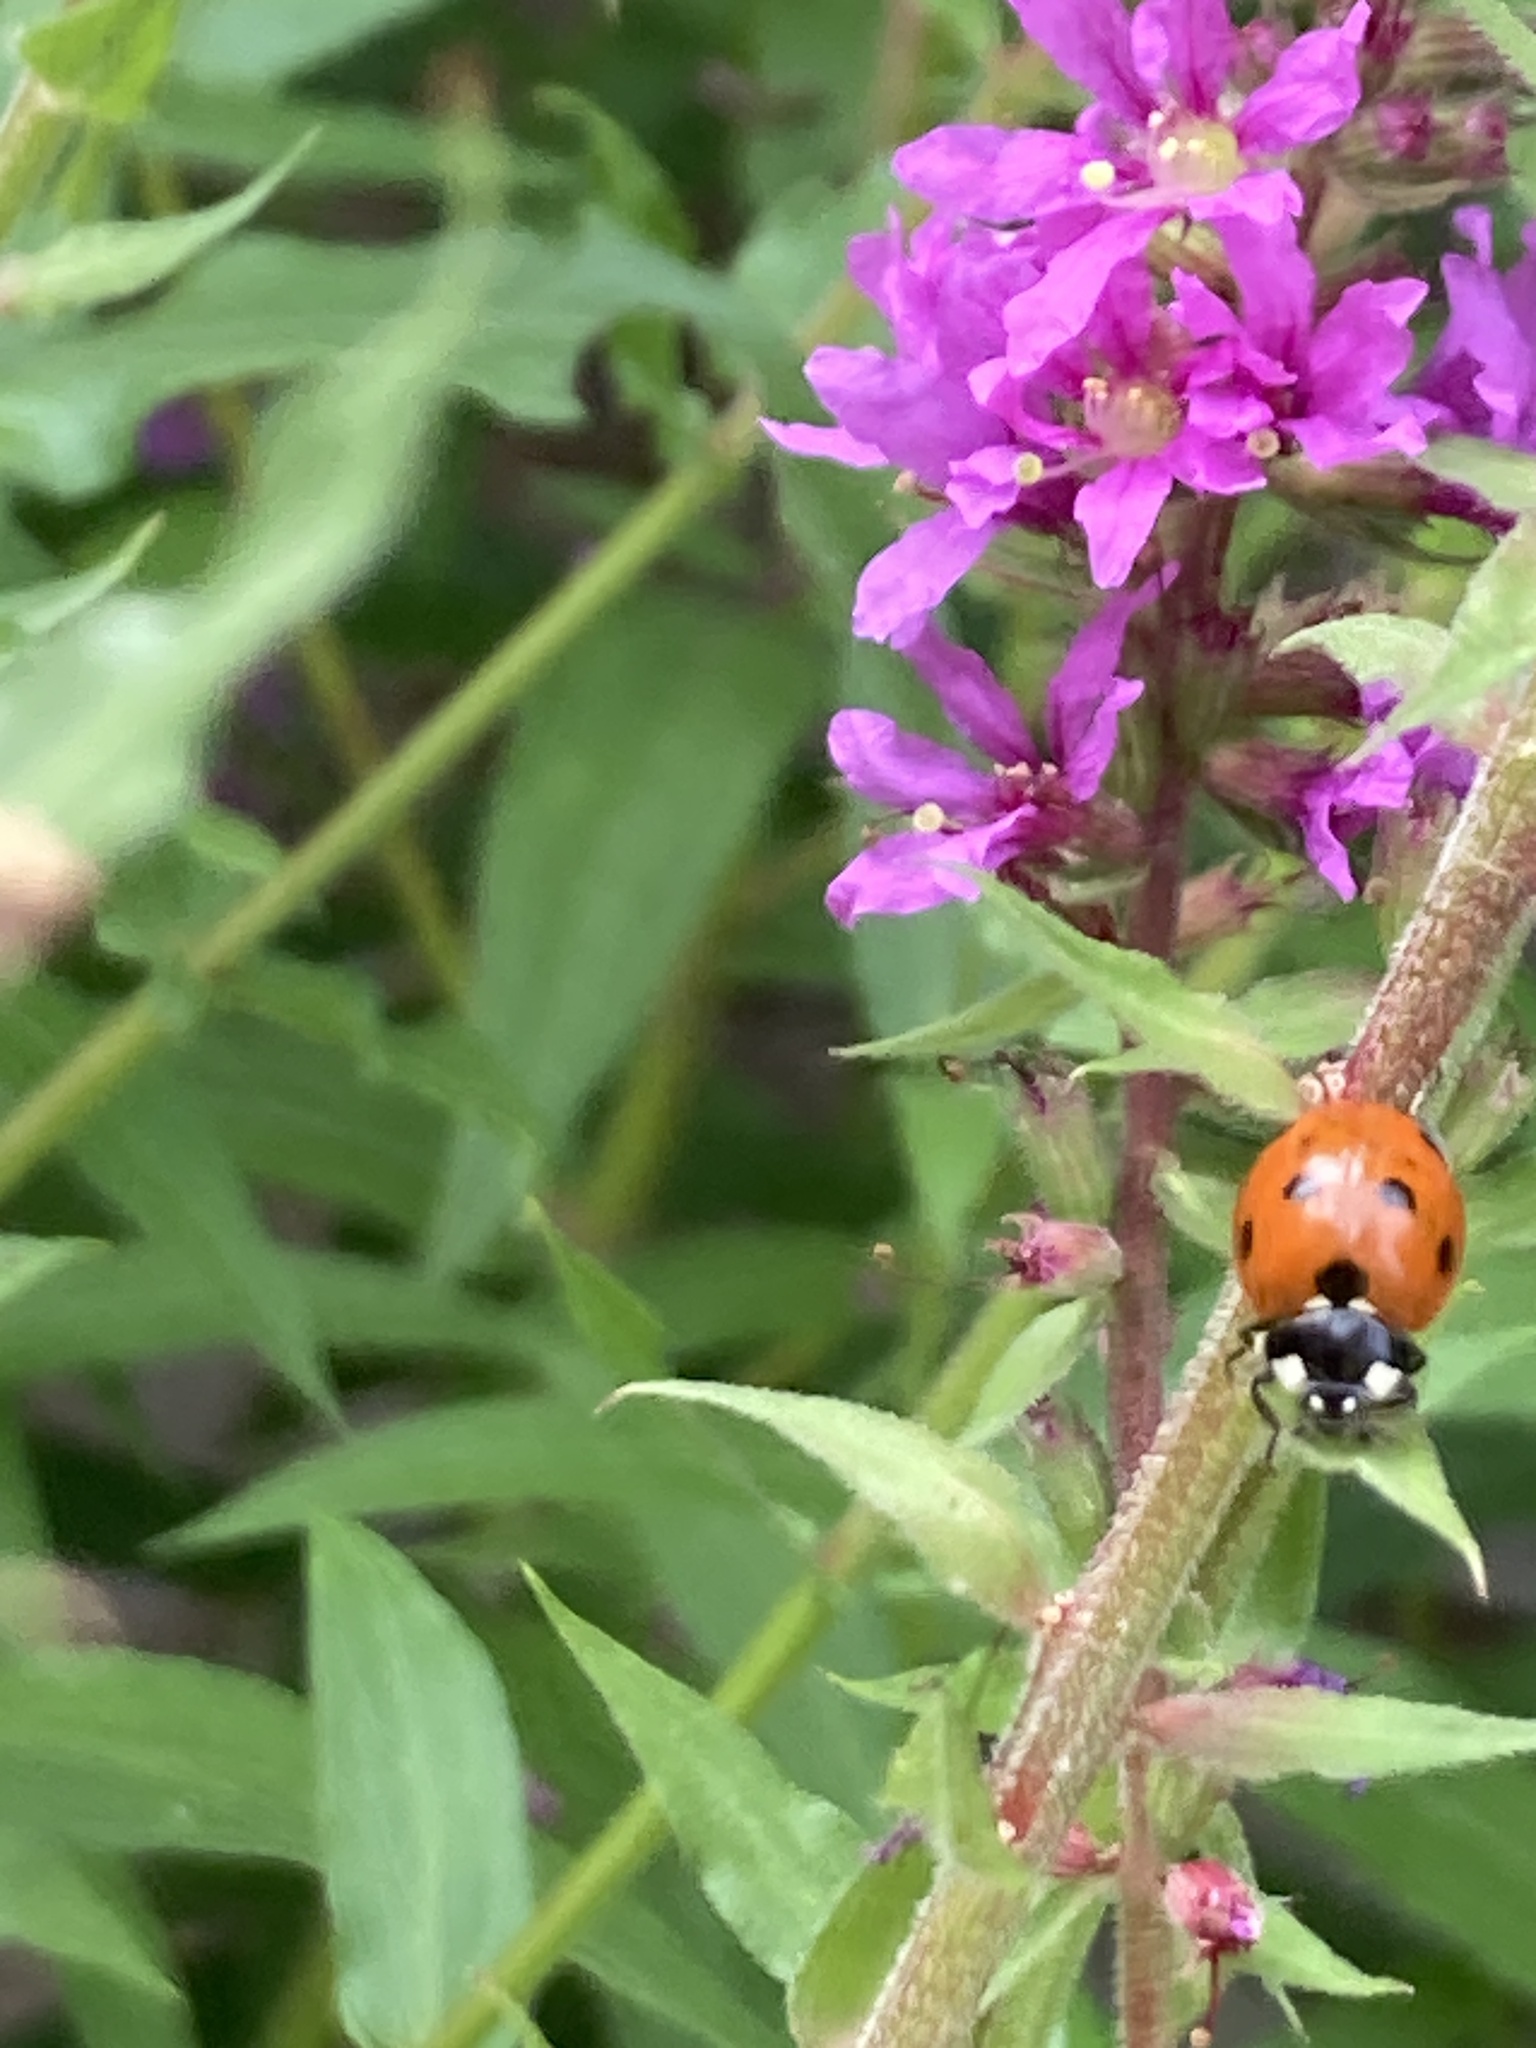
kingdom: Animalia
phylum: Arthropoda
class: Insecta
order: Coleoptera
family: Coccinellidae
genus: Coccinella
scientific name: Coccinella septempunctata
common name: Sevenspotted lady beetle
